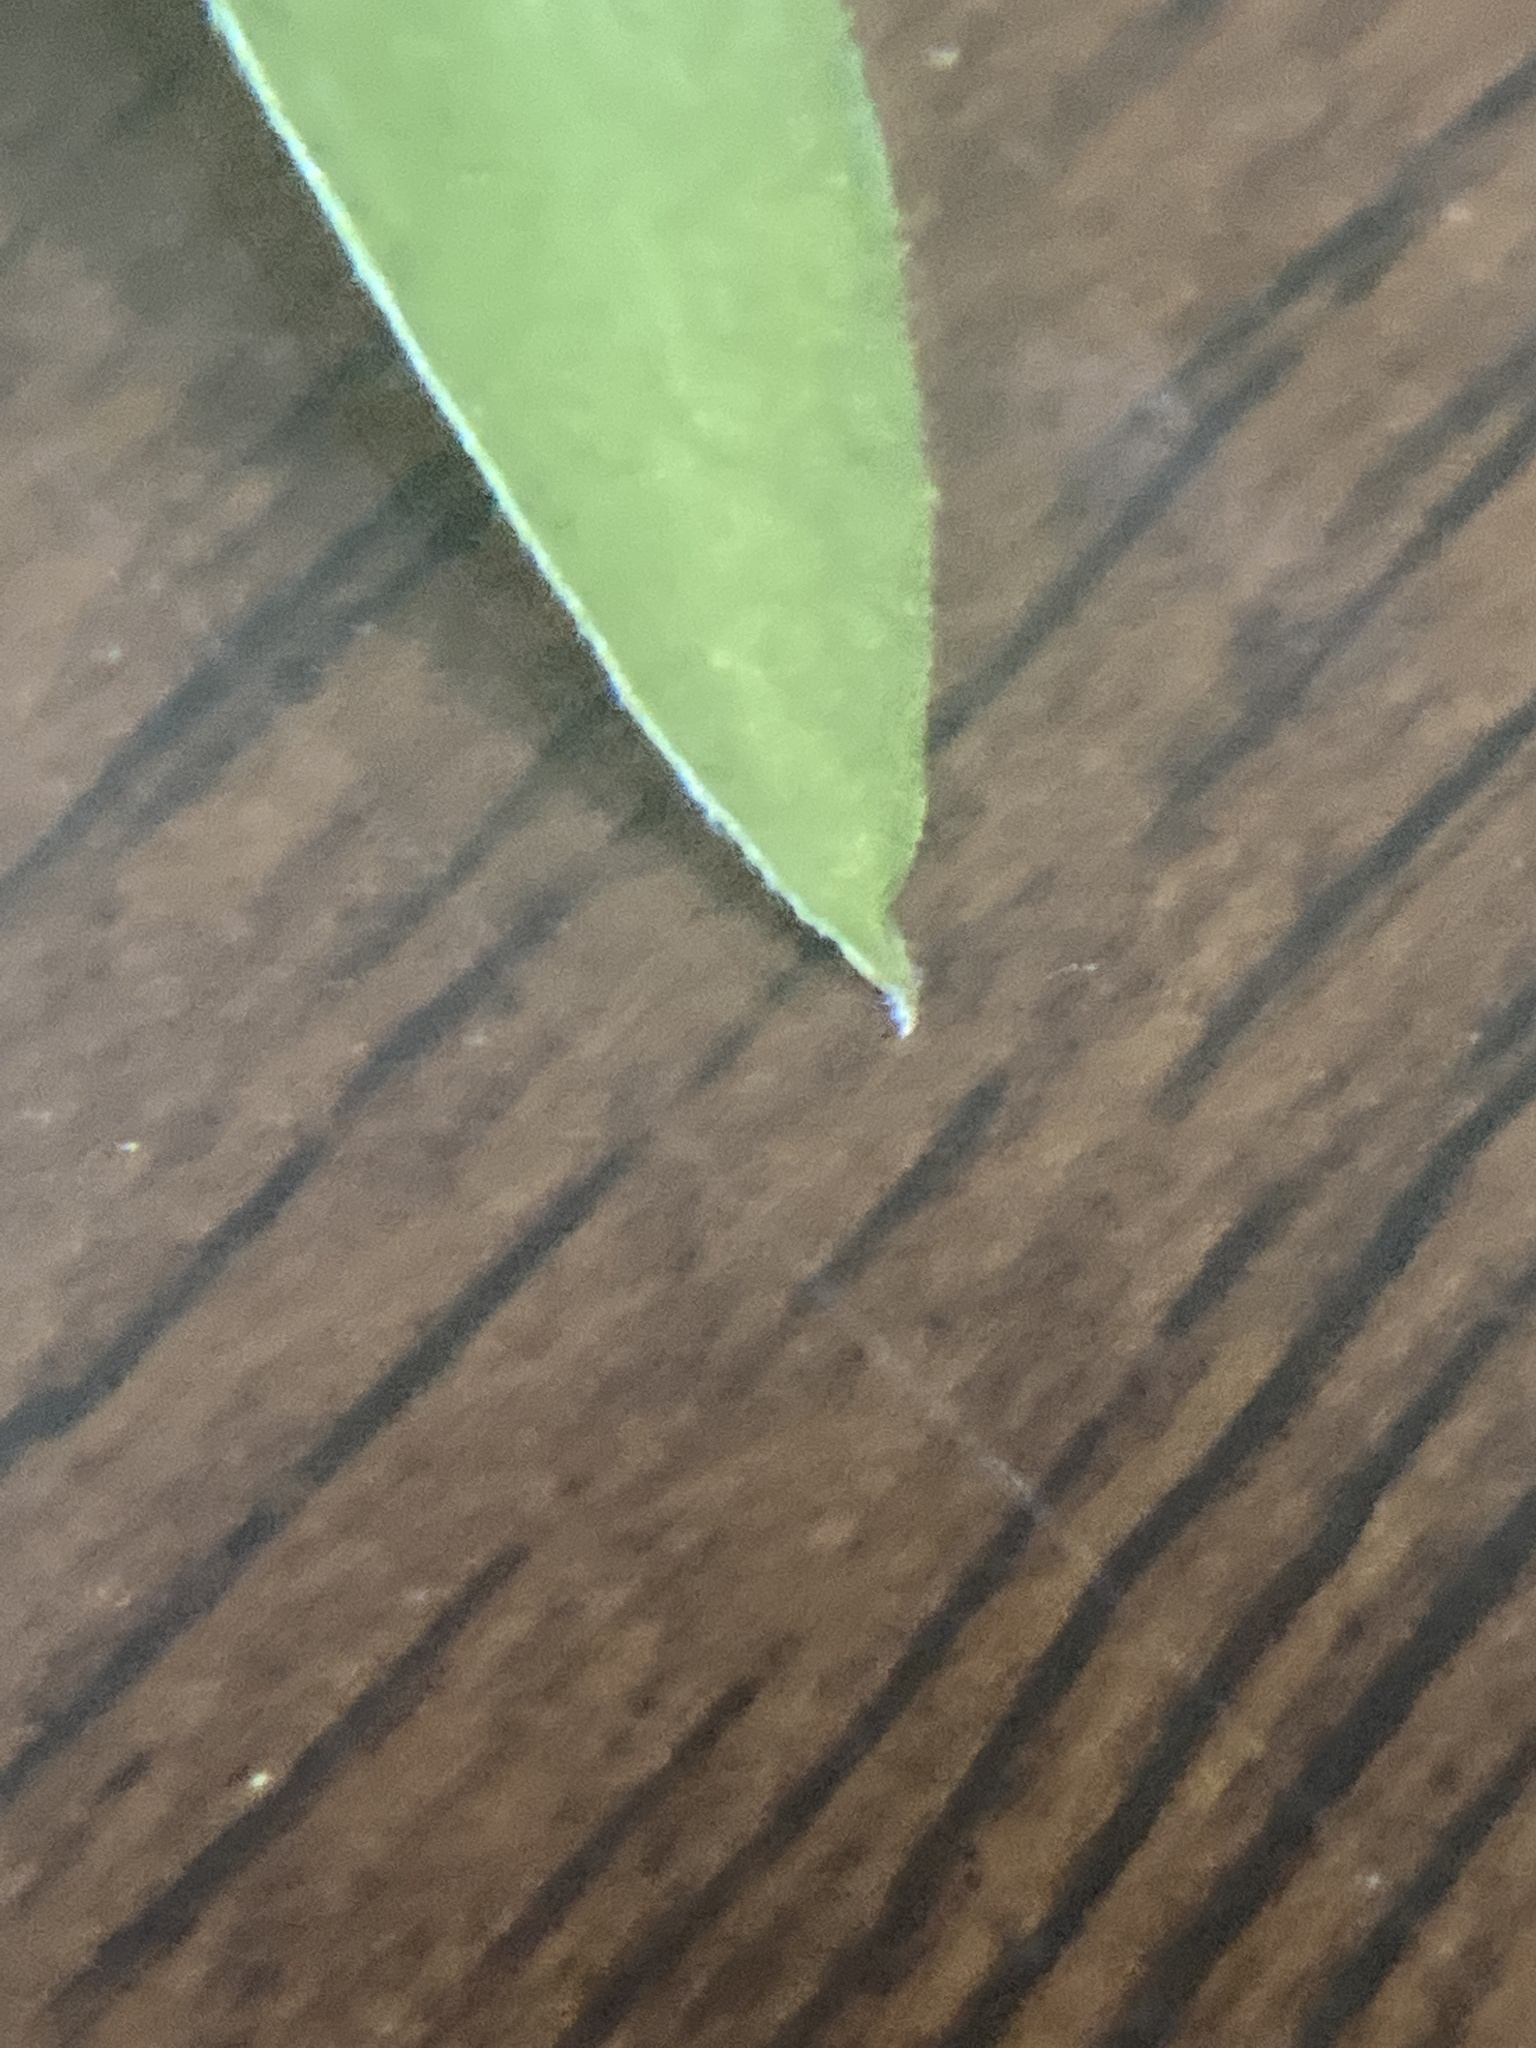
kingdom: Plantae
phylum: Tracheophyta
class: Magnoliopsida
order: Gentianales
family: Rubiaceae
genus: Galium
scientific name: Galium triflorum
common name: Fragrant bedstraw
